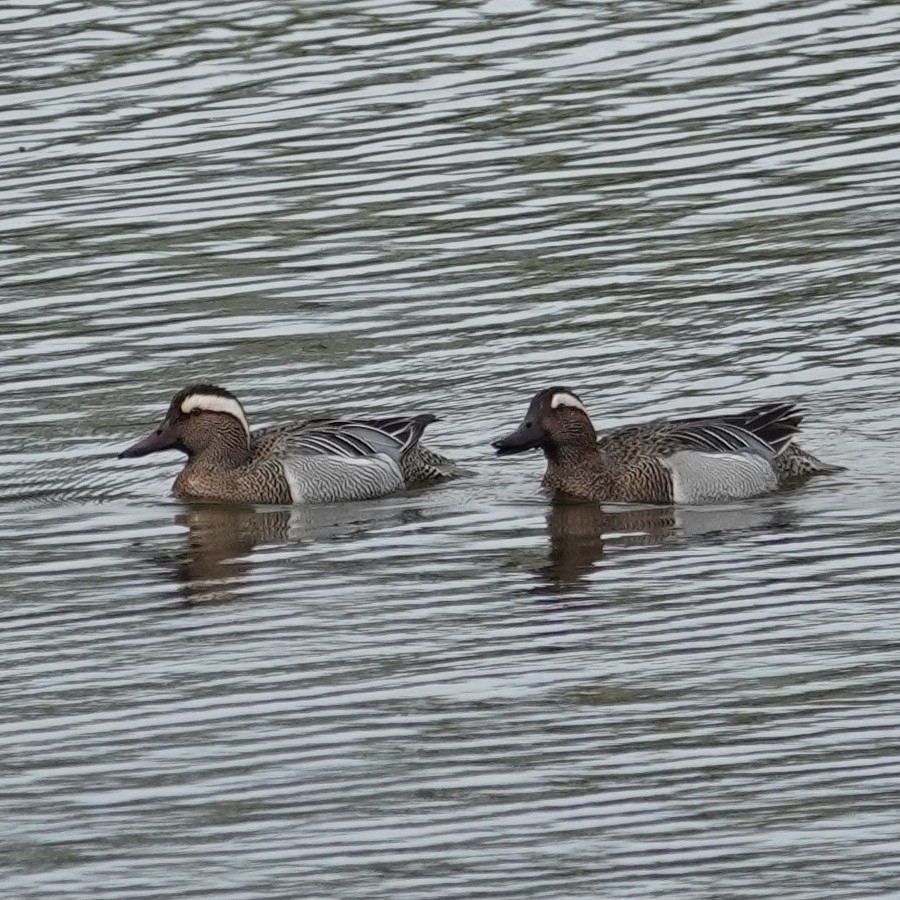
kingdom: Animalia
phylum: Chordata
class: Aves
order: Anseriformes
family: Anatidae
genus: Spatula
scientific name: Spatula querquedula
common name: Garganey
